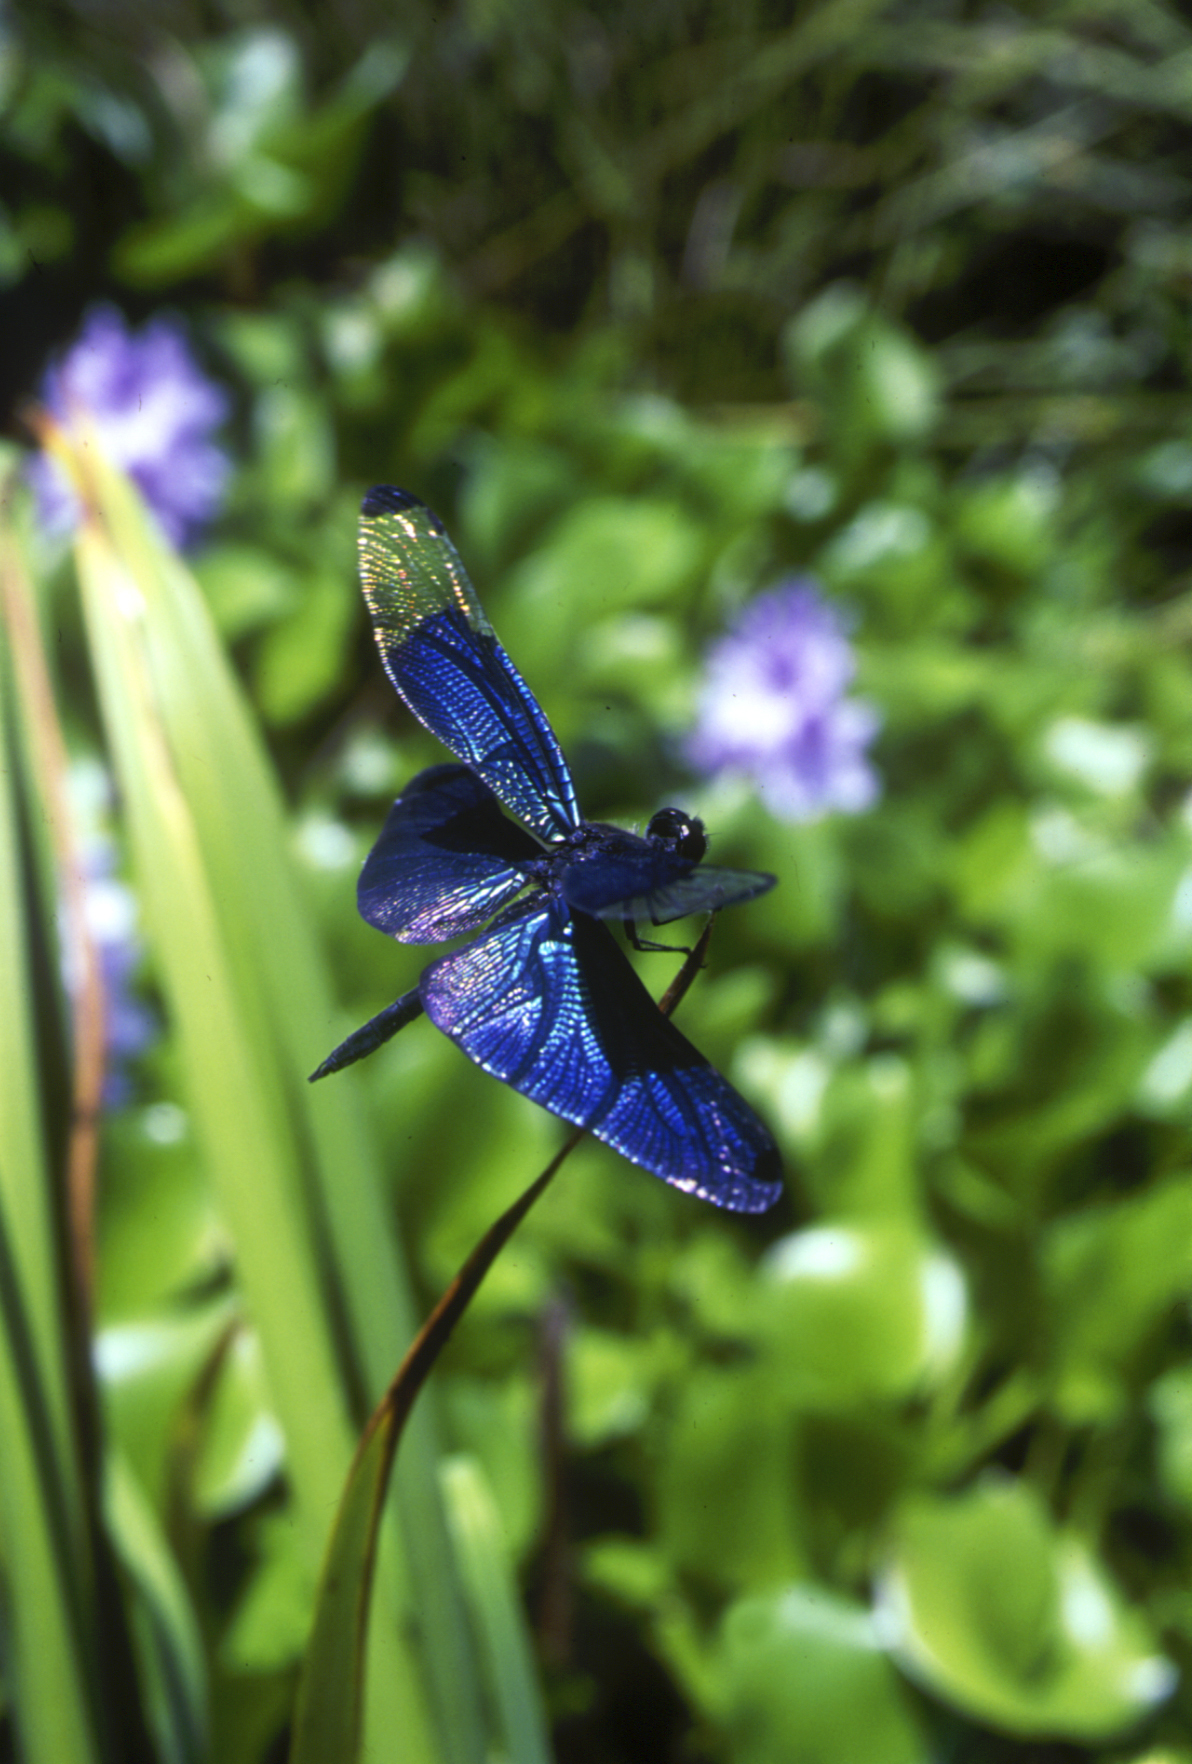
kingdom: Animalia
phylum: Arthropoda
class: Insecta
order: Odonata
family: Libellulidae
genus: Rhyothemis
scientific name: Rhyothemis fuliginosa
